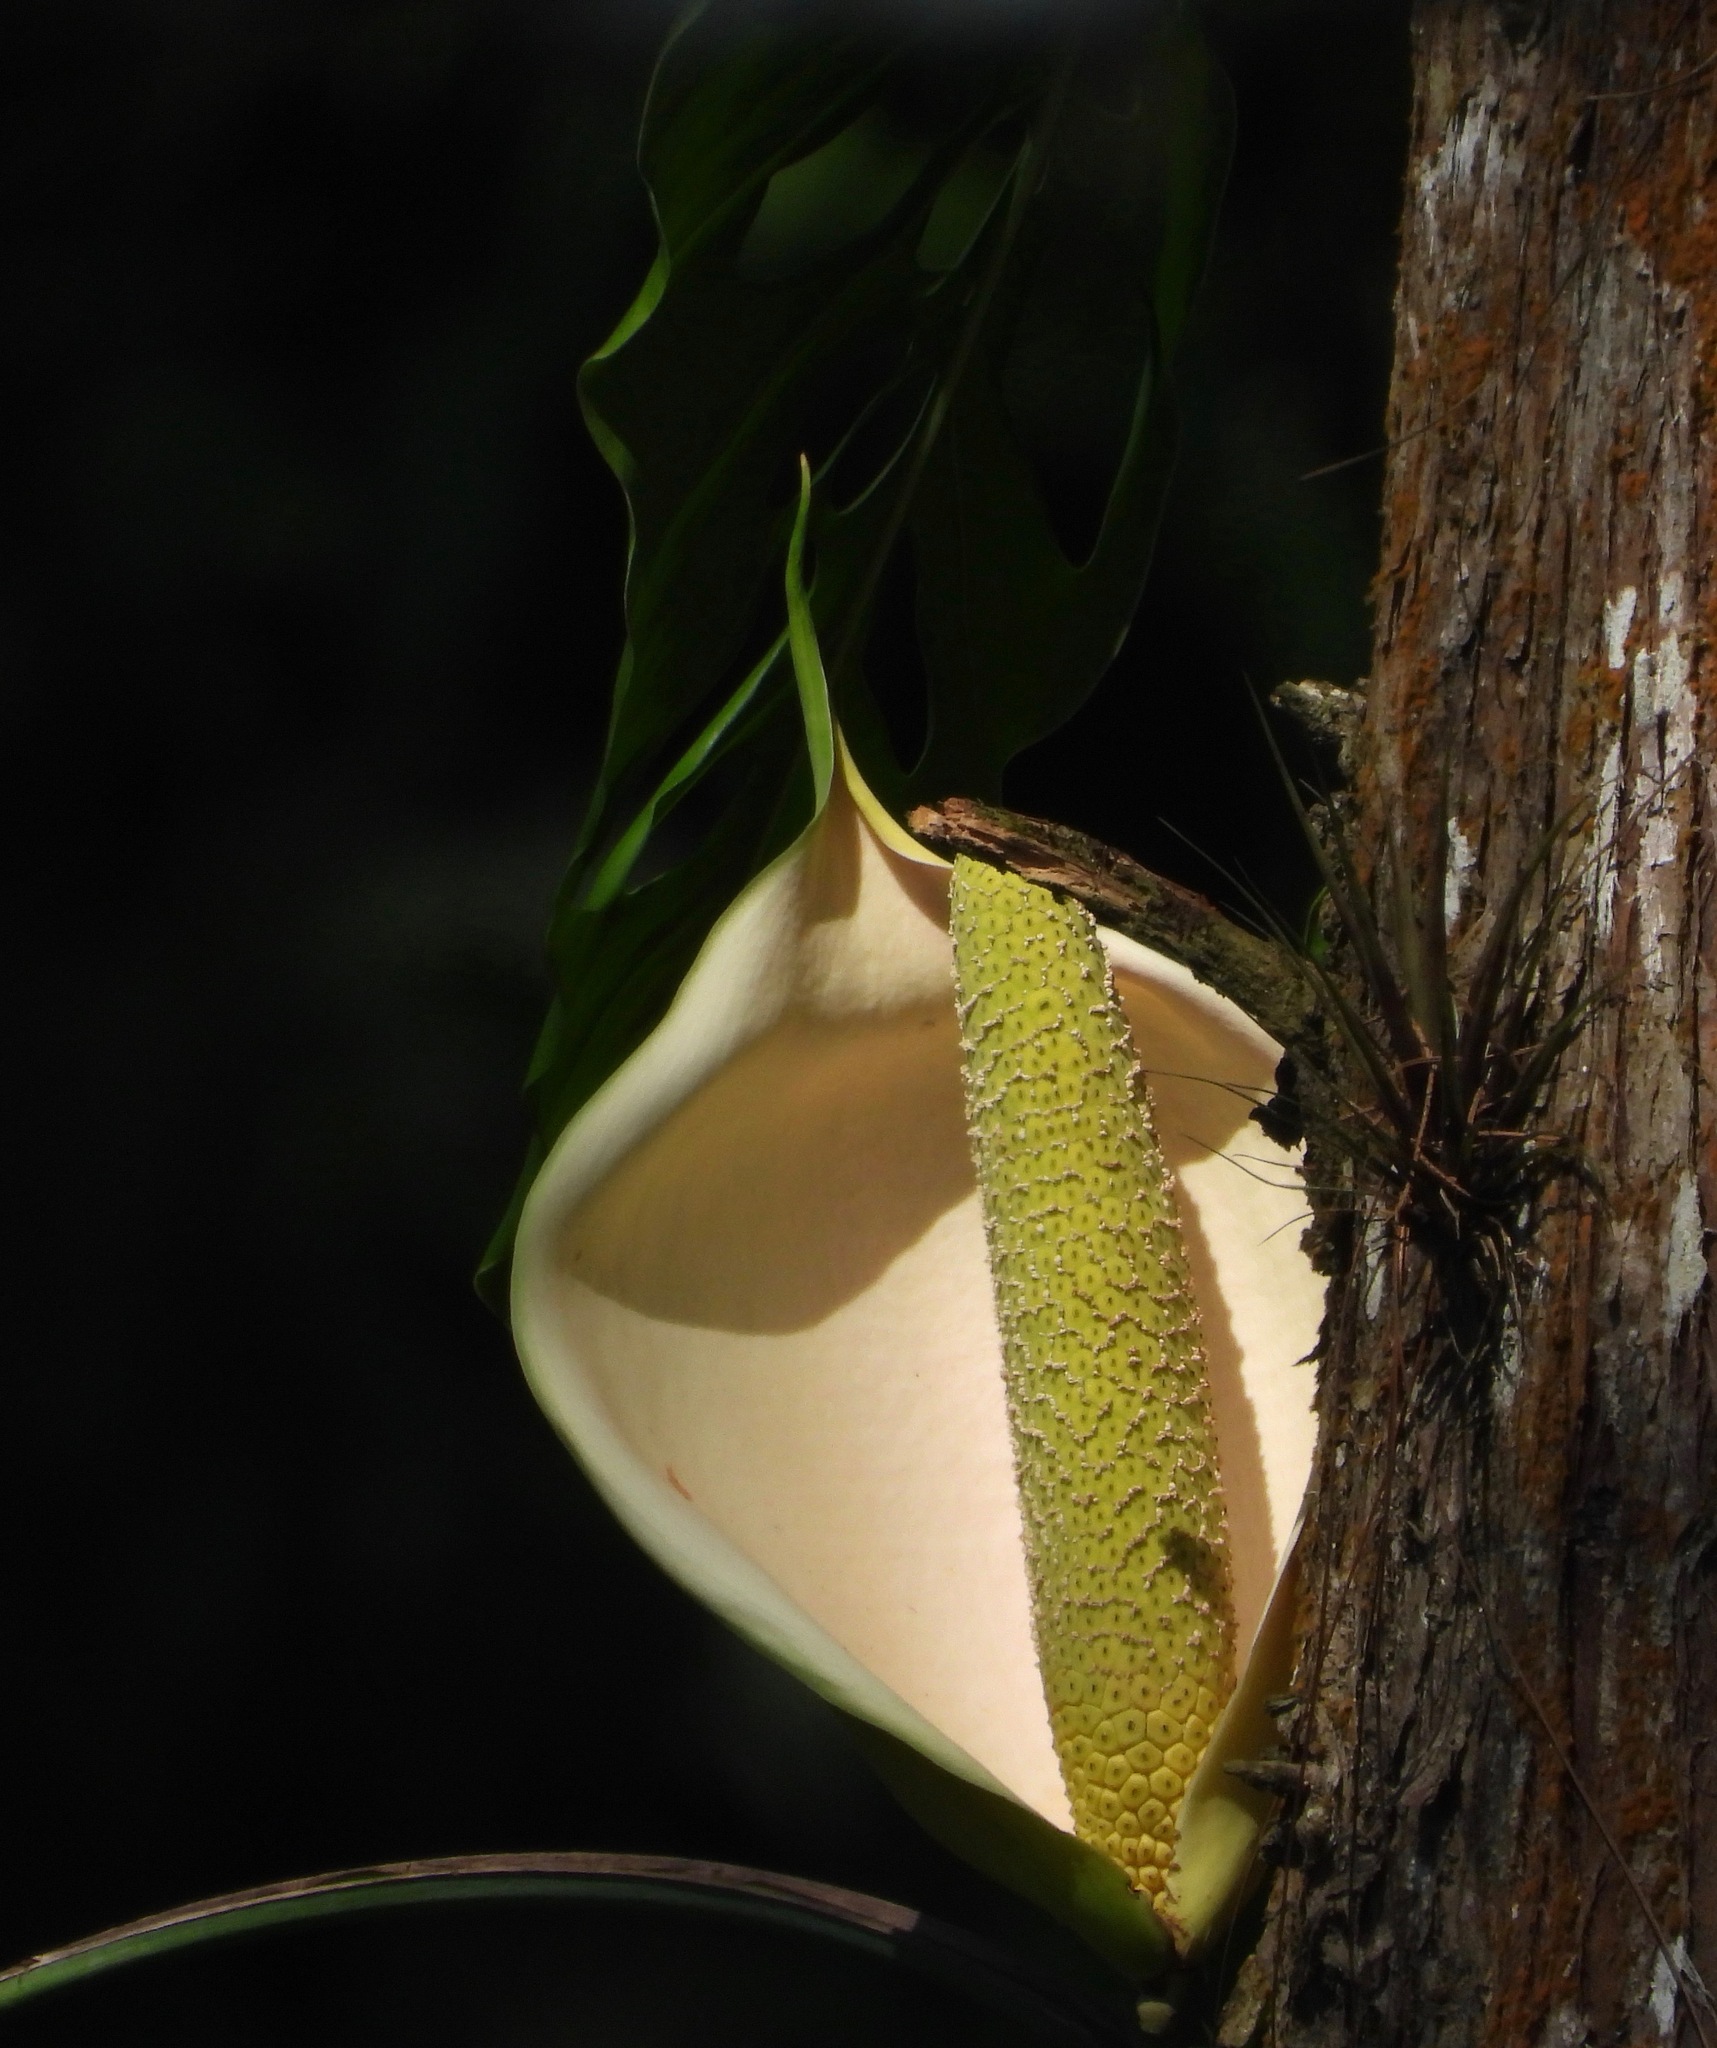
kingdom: Plantae
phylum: Tracheophyta
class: Liliopsida
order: Alismatales
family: Araceae
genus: Monstera
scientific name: Monstera siltepecana
